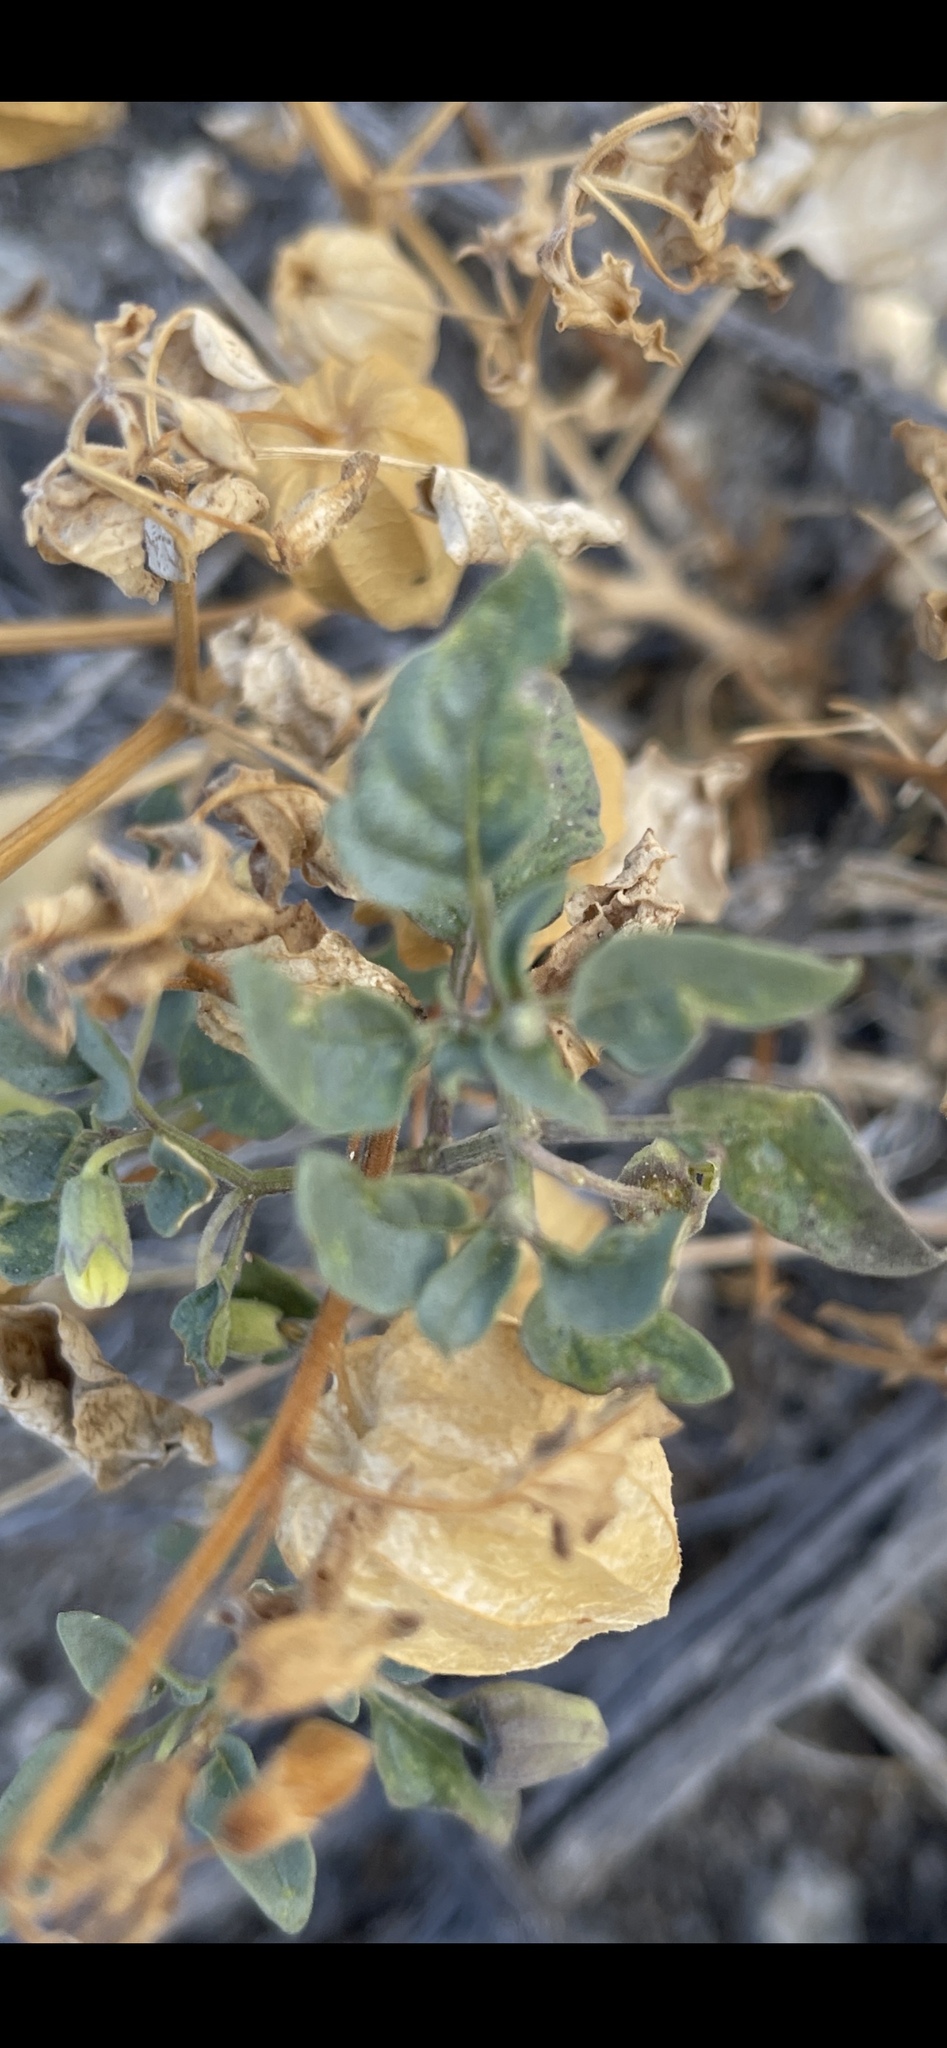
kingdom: Plantae
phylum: Tracheophyta
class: Magnoliopsida
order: Solanales
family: Solanaceae
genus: Physalis
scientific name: Physalis crassifolia
